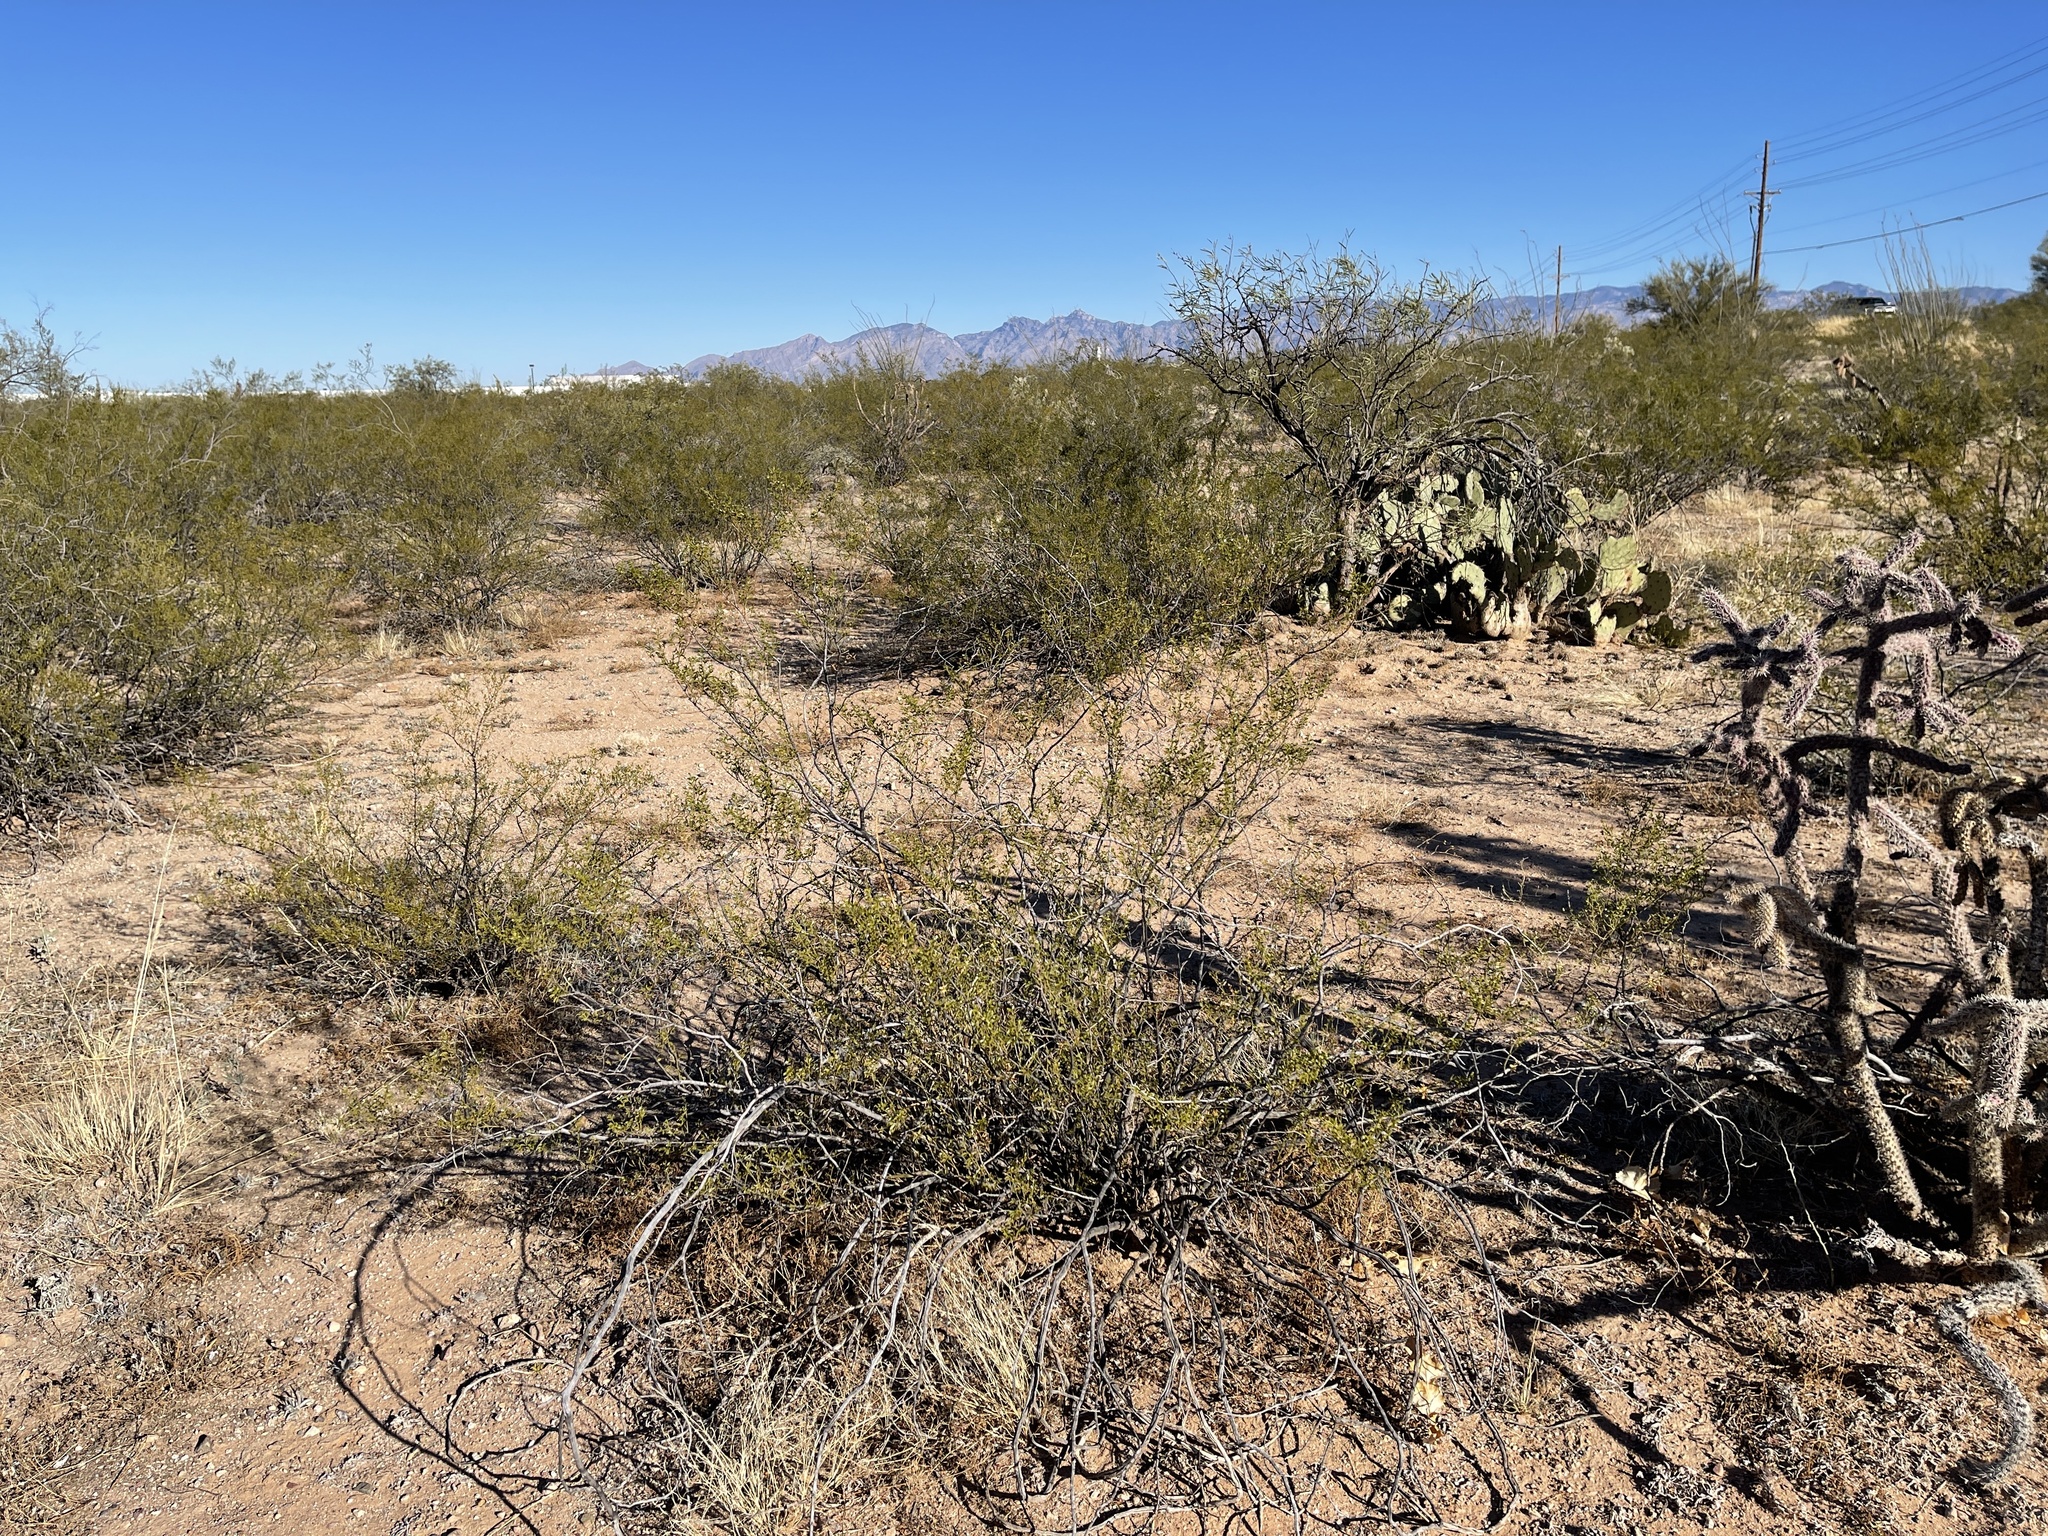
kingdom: Plantae
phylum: Tracheophyta
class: Magnoliopsida
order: Zygophyllales
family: Zygophyllaceae
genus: Larrea
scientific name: Larrea tridentata
